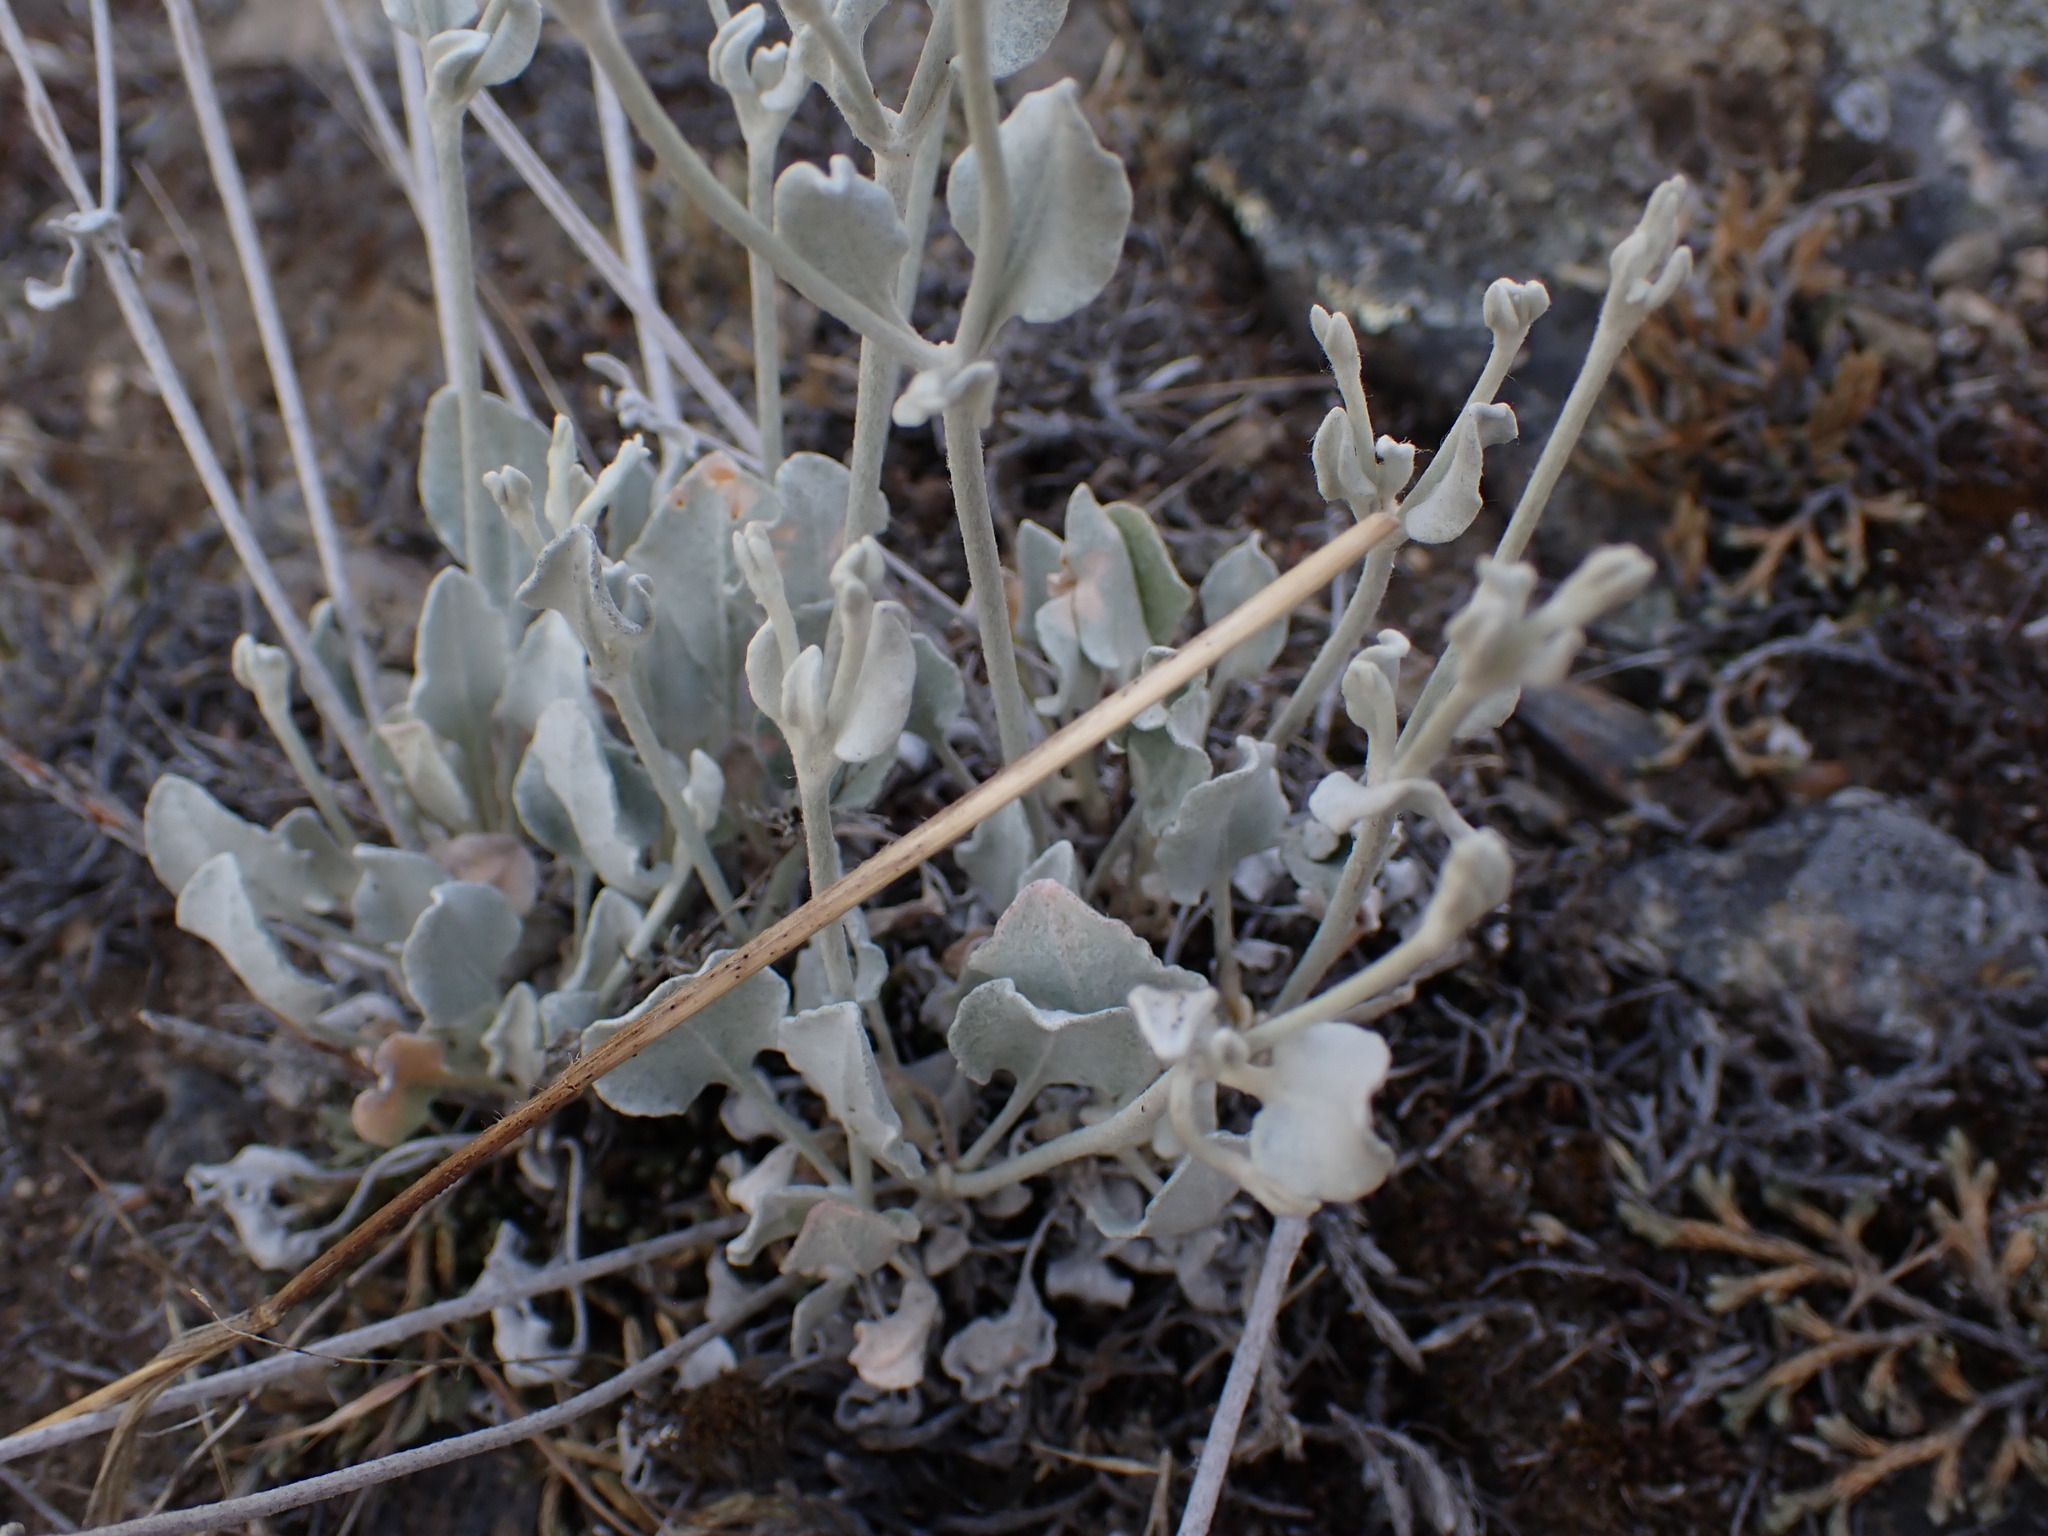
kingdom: Plantae
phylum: Tracheophyta
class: Magnoliopsida
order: Caryophyllales
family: Polygonaceae
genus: Eriogonum
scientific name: Eriogonum niveum
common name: Snow wild buckwheat
